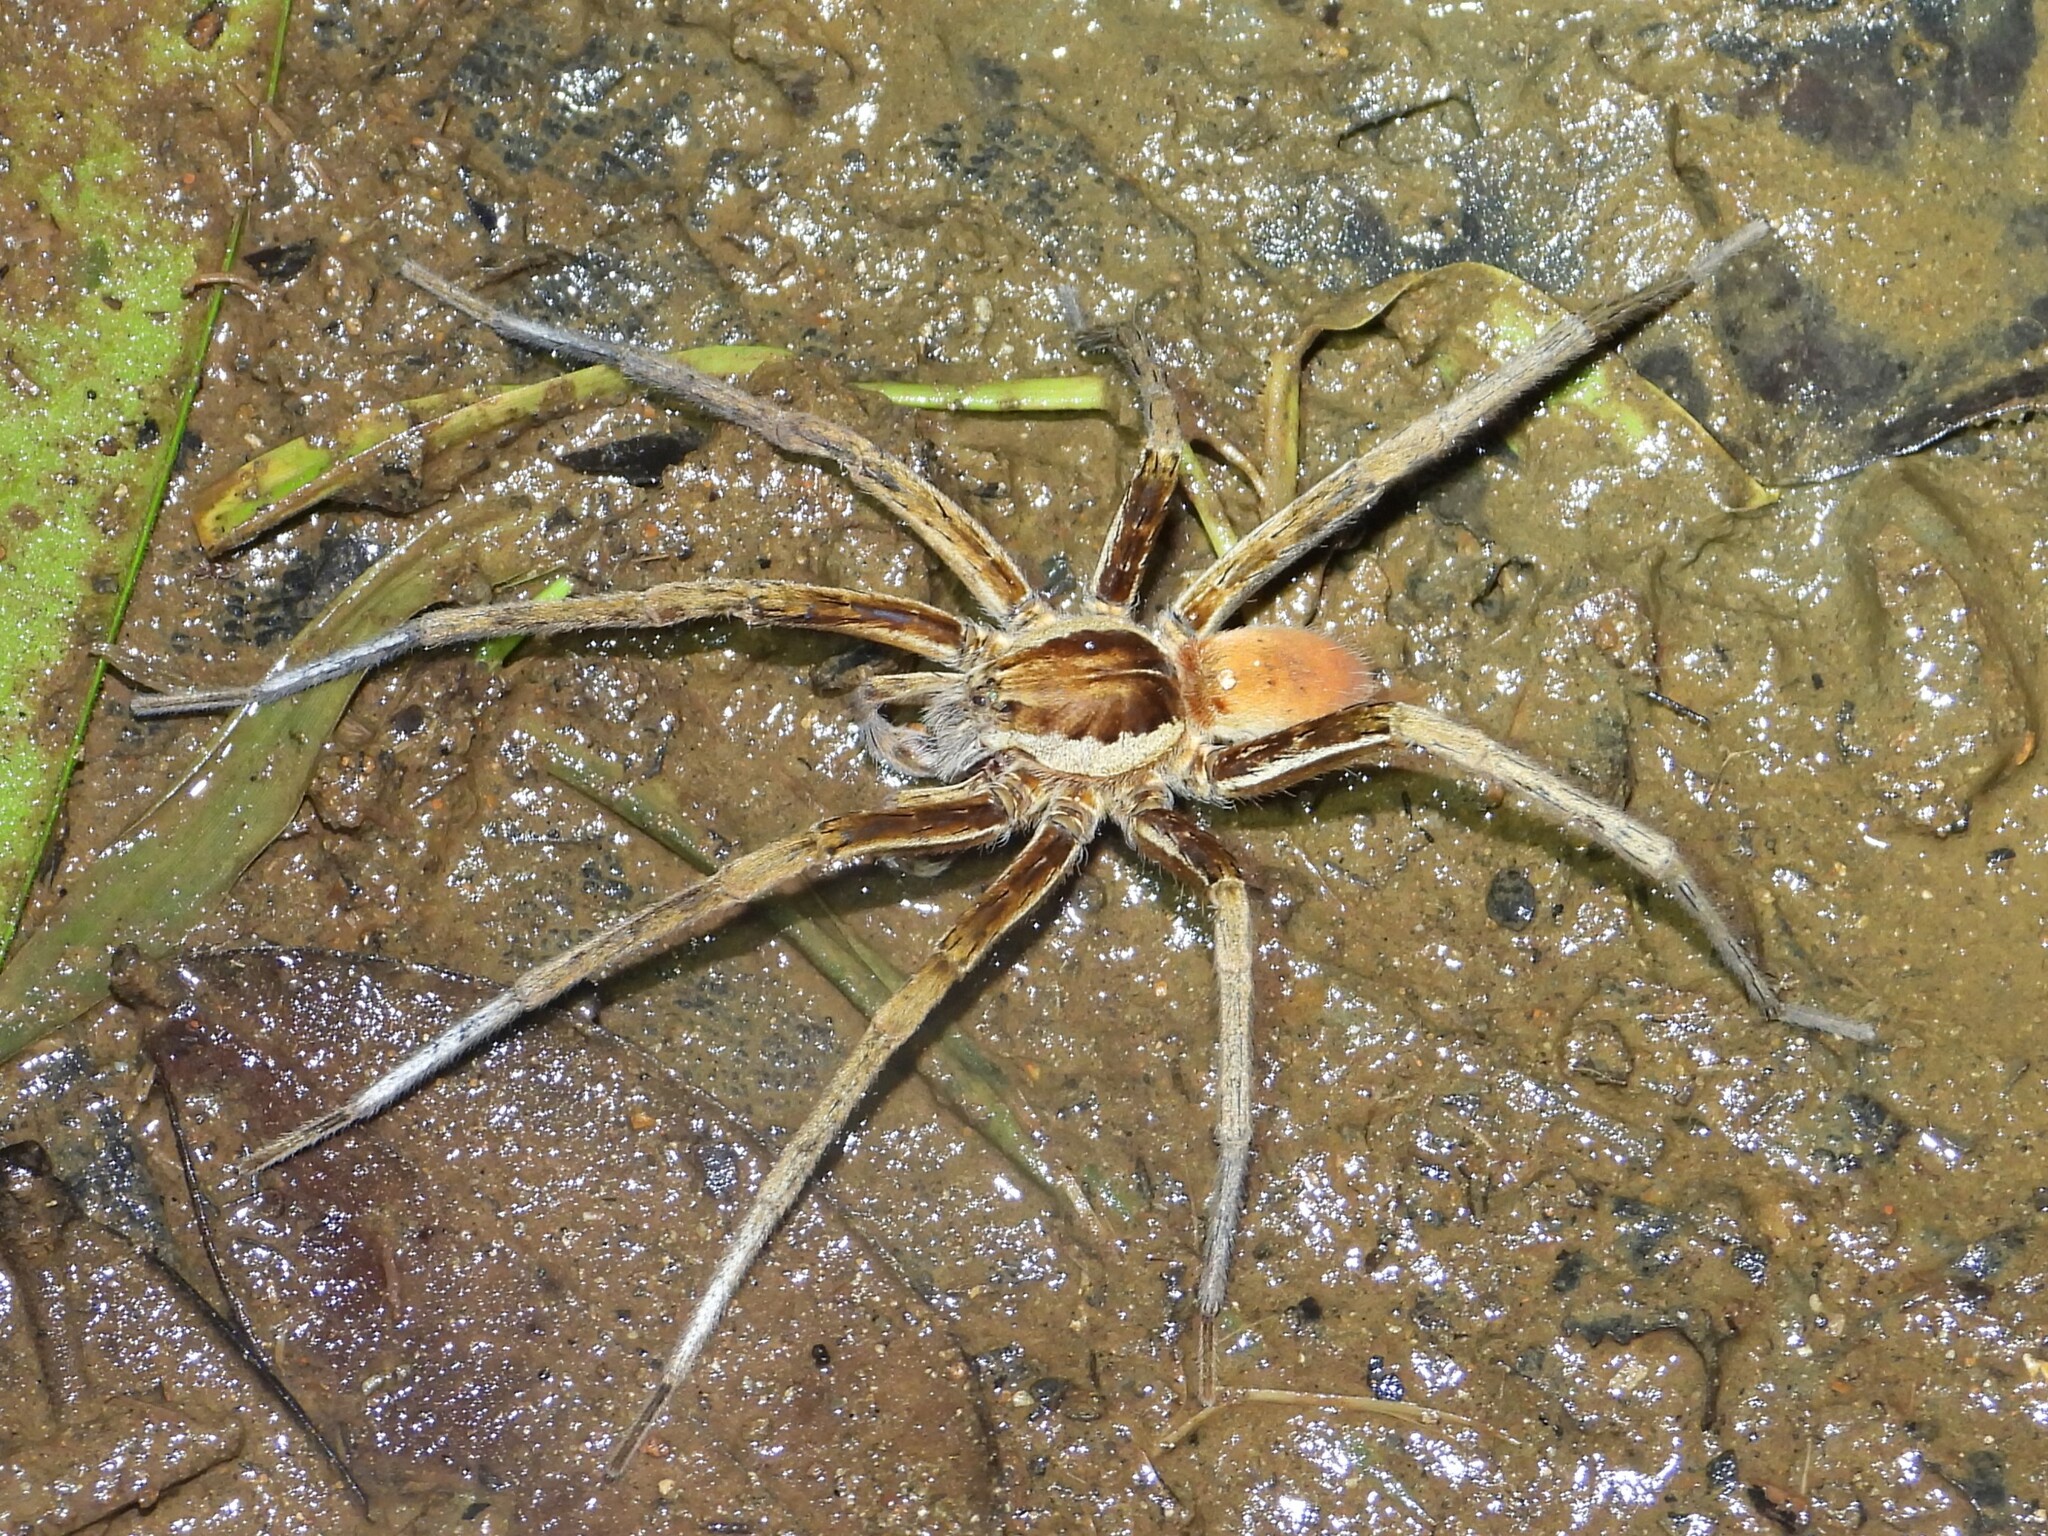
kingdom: Animalia
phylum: Arthropoda
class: Arachnida
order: Araneae
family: Ctenidae
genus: Ancylometes
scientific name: Ancylometes bogotensis
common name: Wandering spiders
